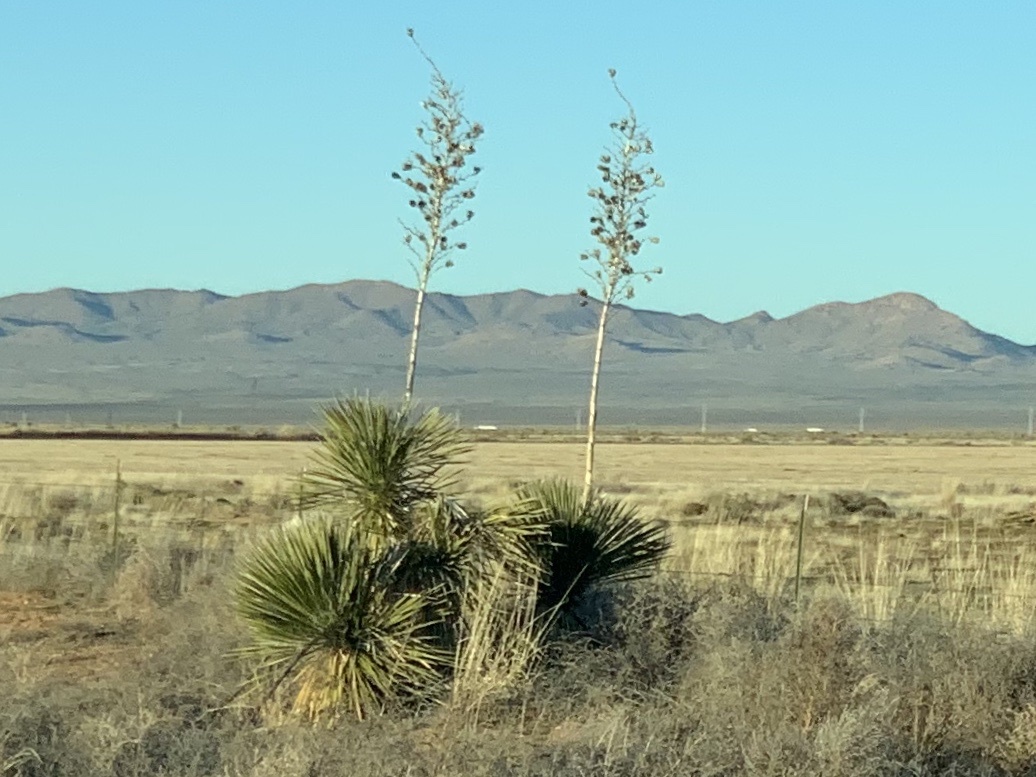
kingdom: Plantae
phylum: Tracheophyta
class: Liliopsida
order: Asparagales
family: Asparagaceae
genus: Yucca
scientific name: Yucca elata
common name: Palmella
